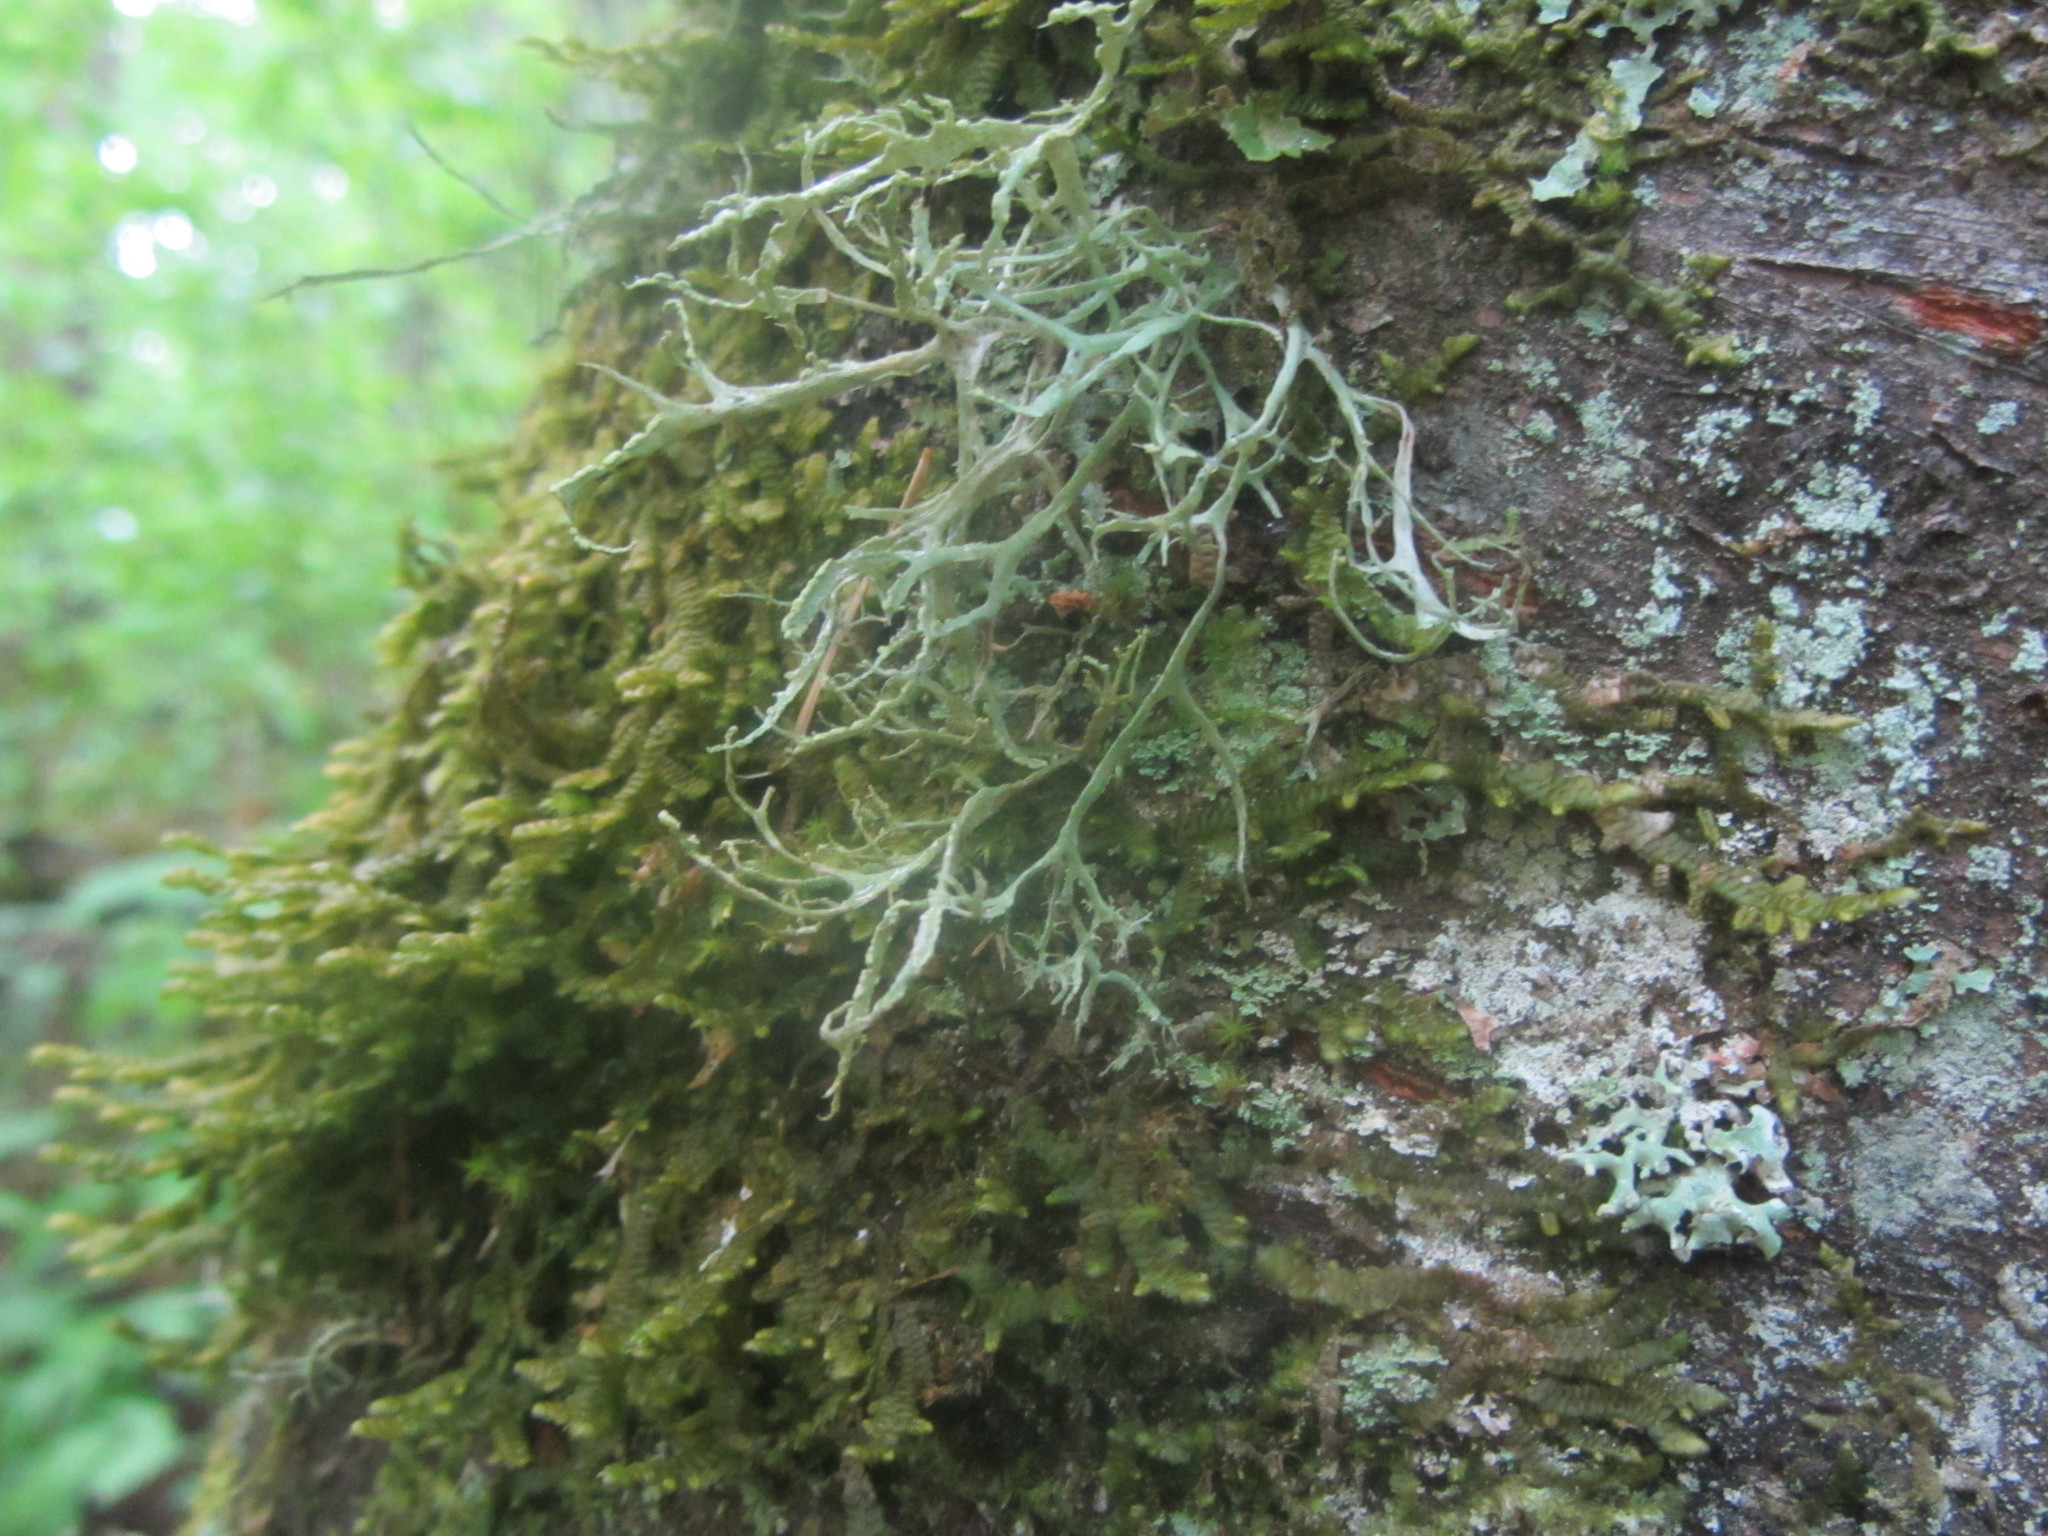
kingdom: Fungi
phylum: Ascomycota
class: Lecanoromycetes
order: Lecanorales
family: Ramalinaceae
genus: Ramalina
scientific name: Ramalina farinacea
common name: Farinose cartilage lichen
